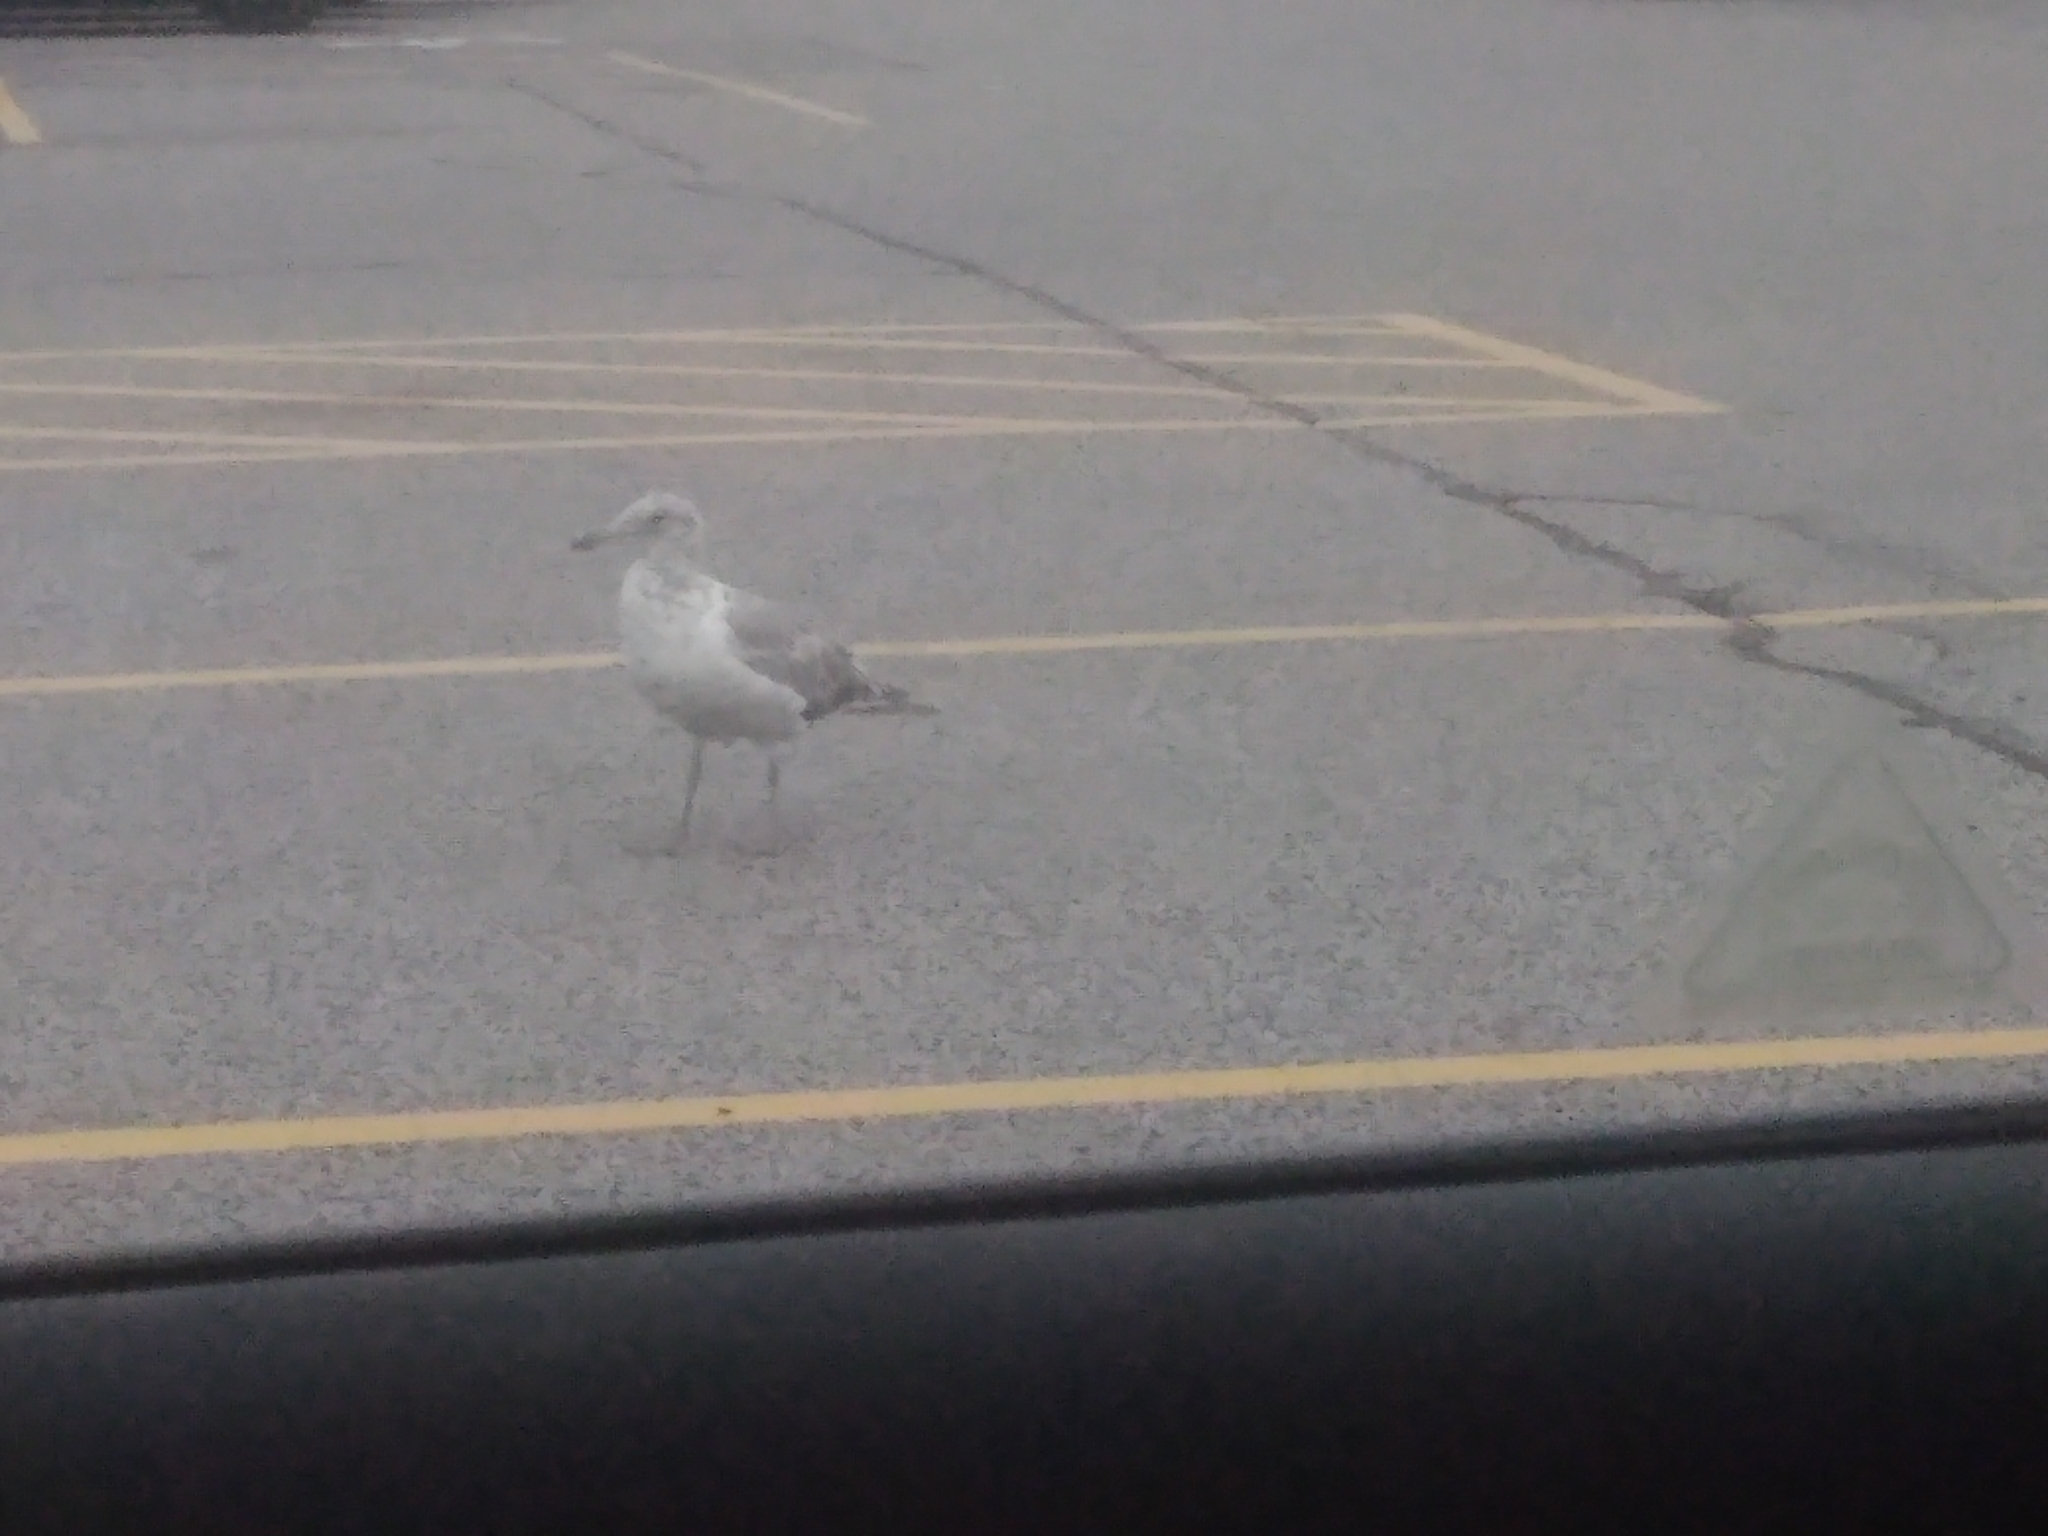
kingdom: Animalia
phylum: Chordata
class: Aves
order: Charadriiformes
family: Laridae
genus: Larus
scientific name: Larus argentatus
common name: Herring gull
